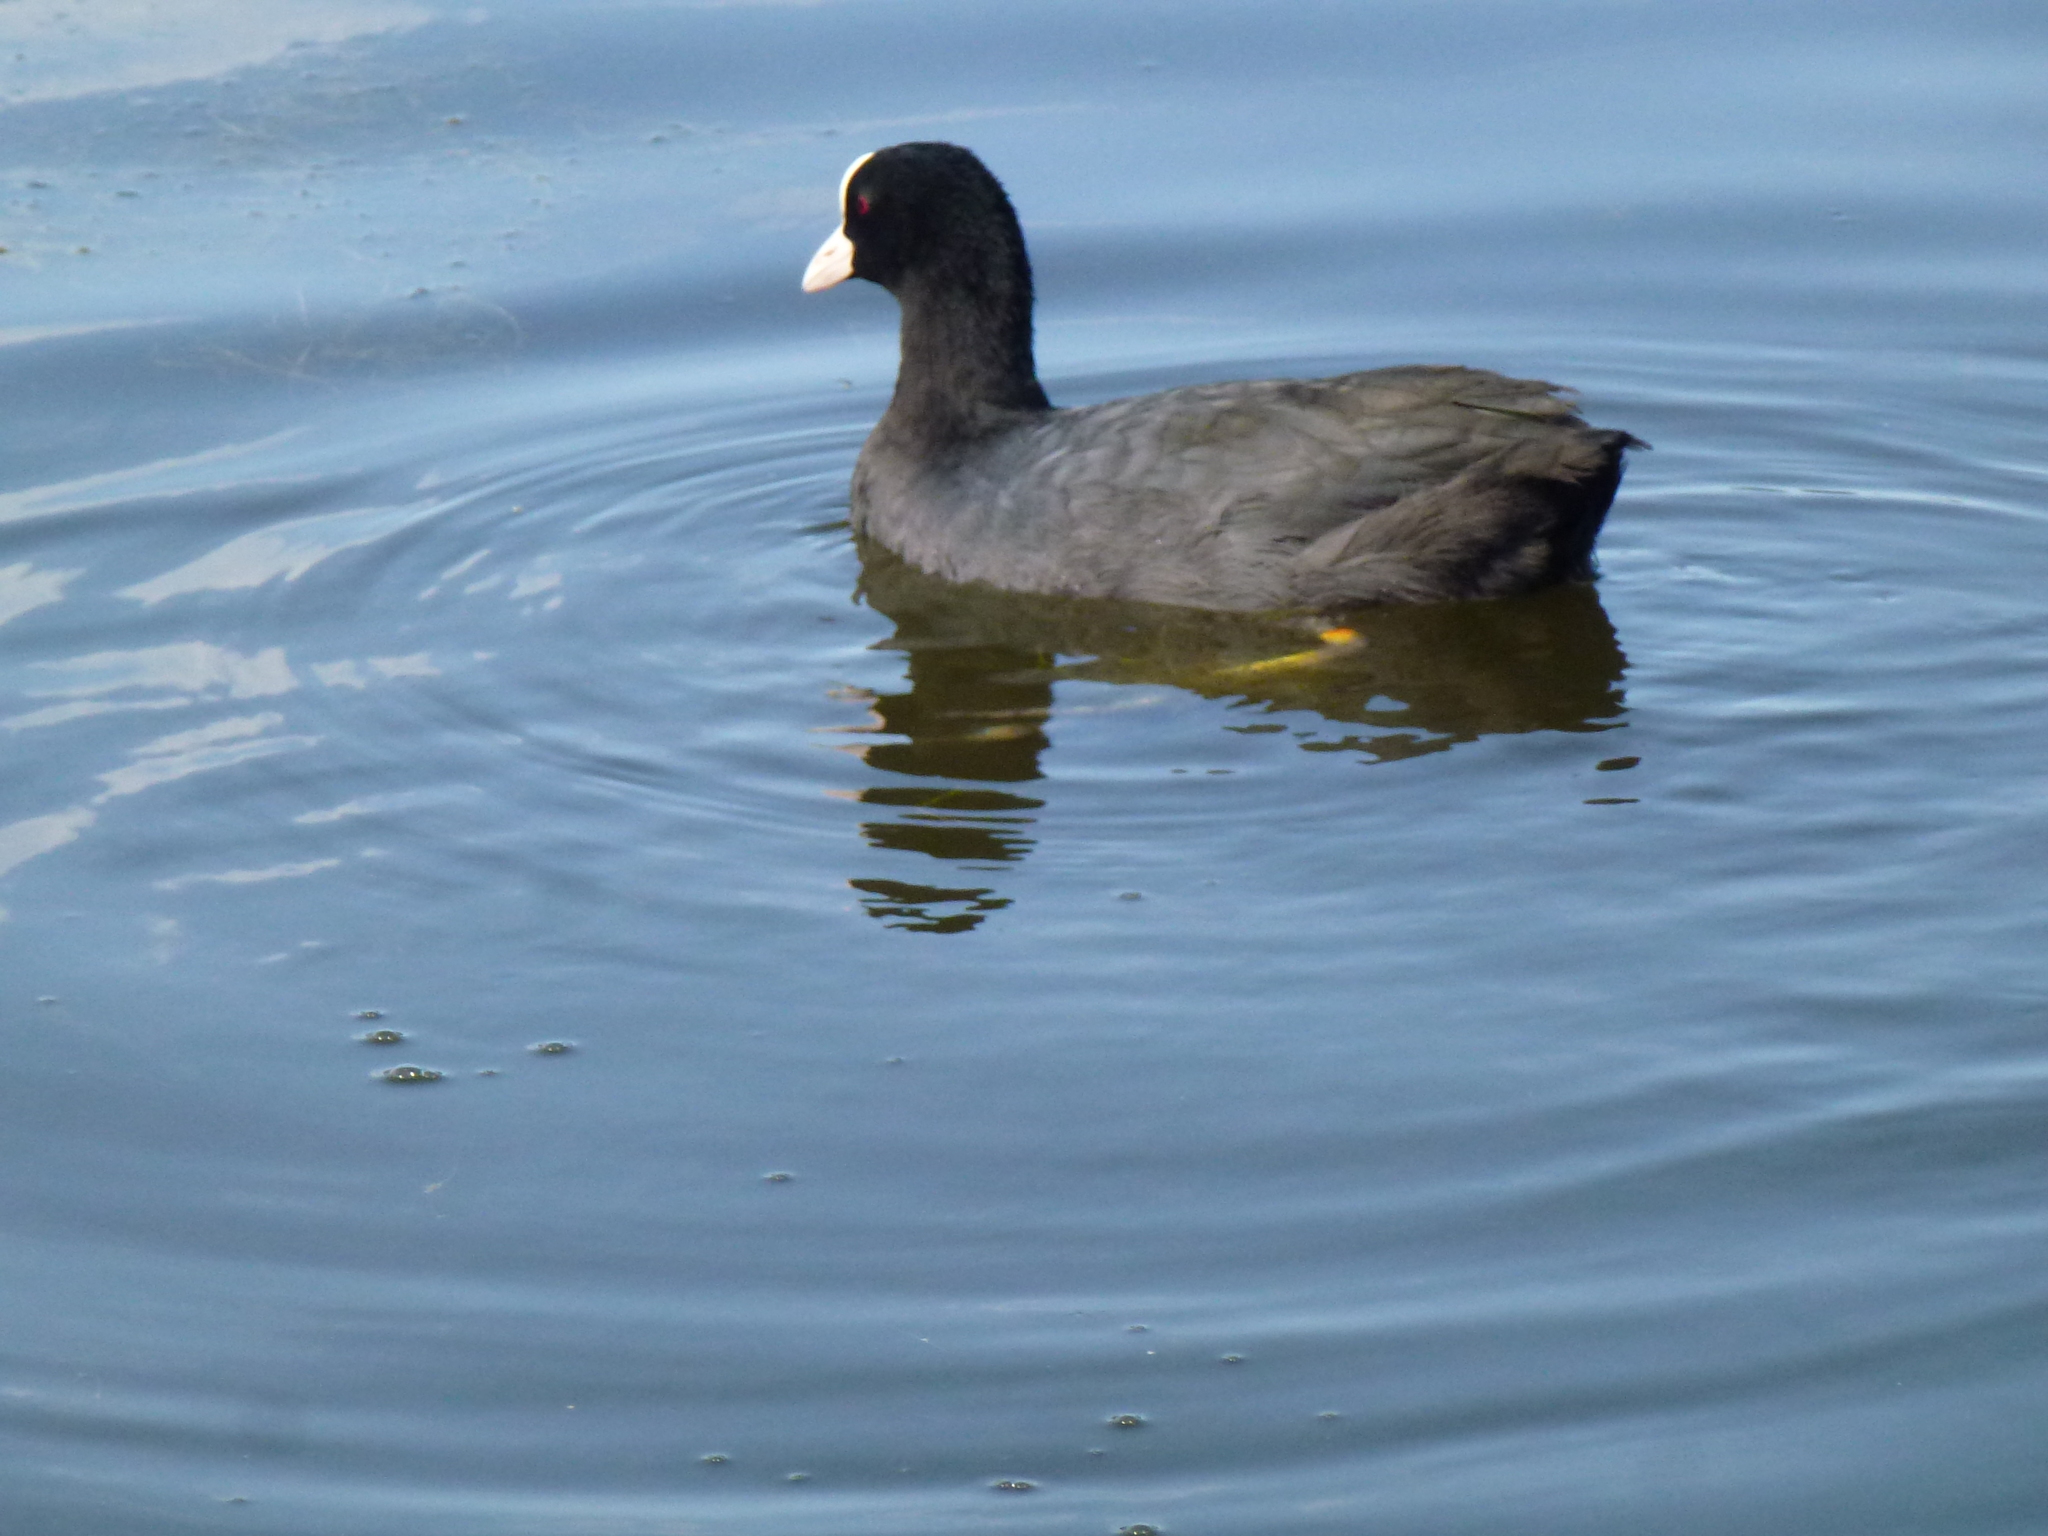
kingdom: Animalia
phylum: Chordata
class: Aves
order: Gruiformes
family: Rallidae
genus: Fulica
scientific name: Fulica atra
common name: Eurasian coot
